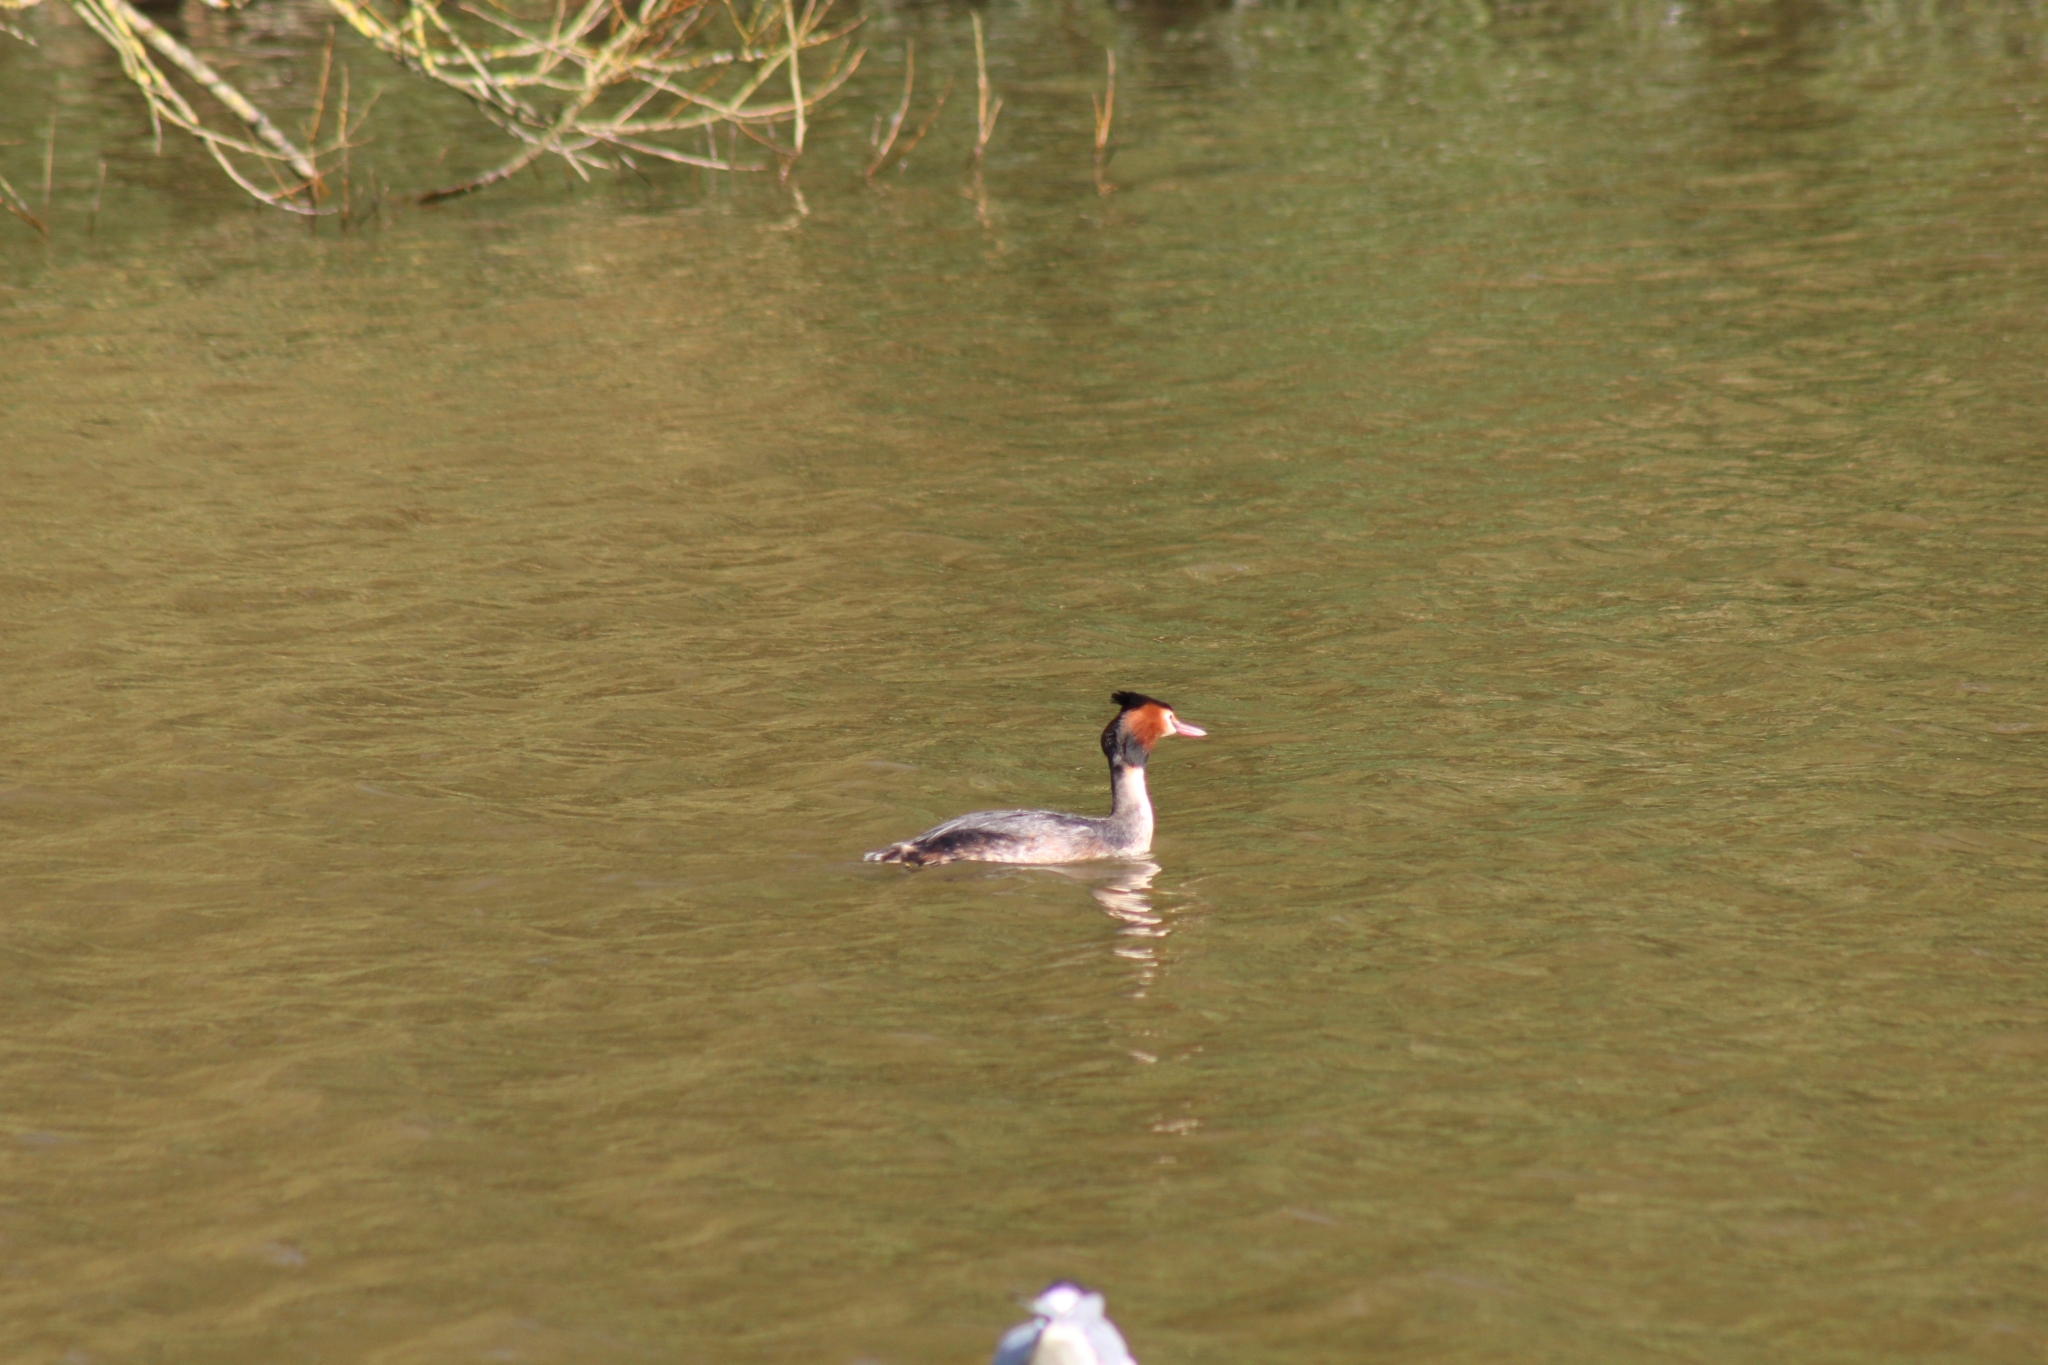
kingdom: Animalia
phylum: Chordata
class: Aves
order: Podicipediformes
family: Podicipedidae
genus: Podiceps
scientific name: Podiceps cristatus
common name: Great crested grebe
